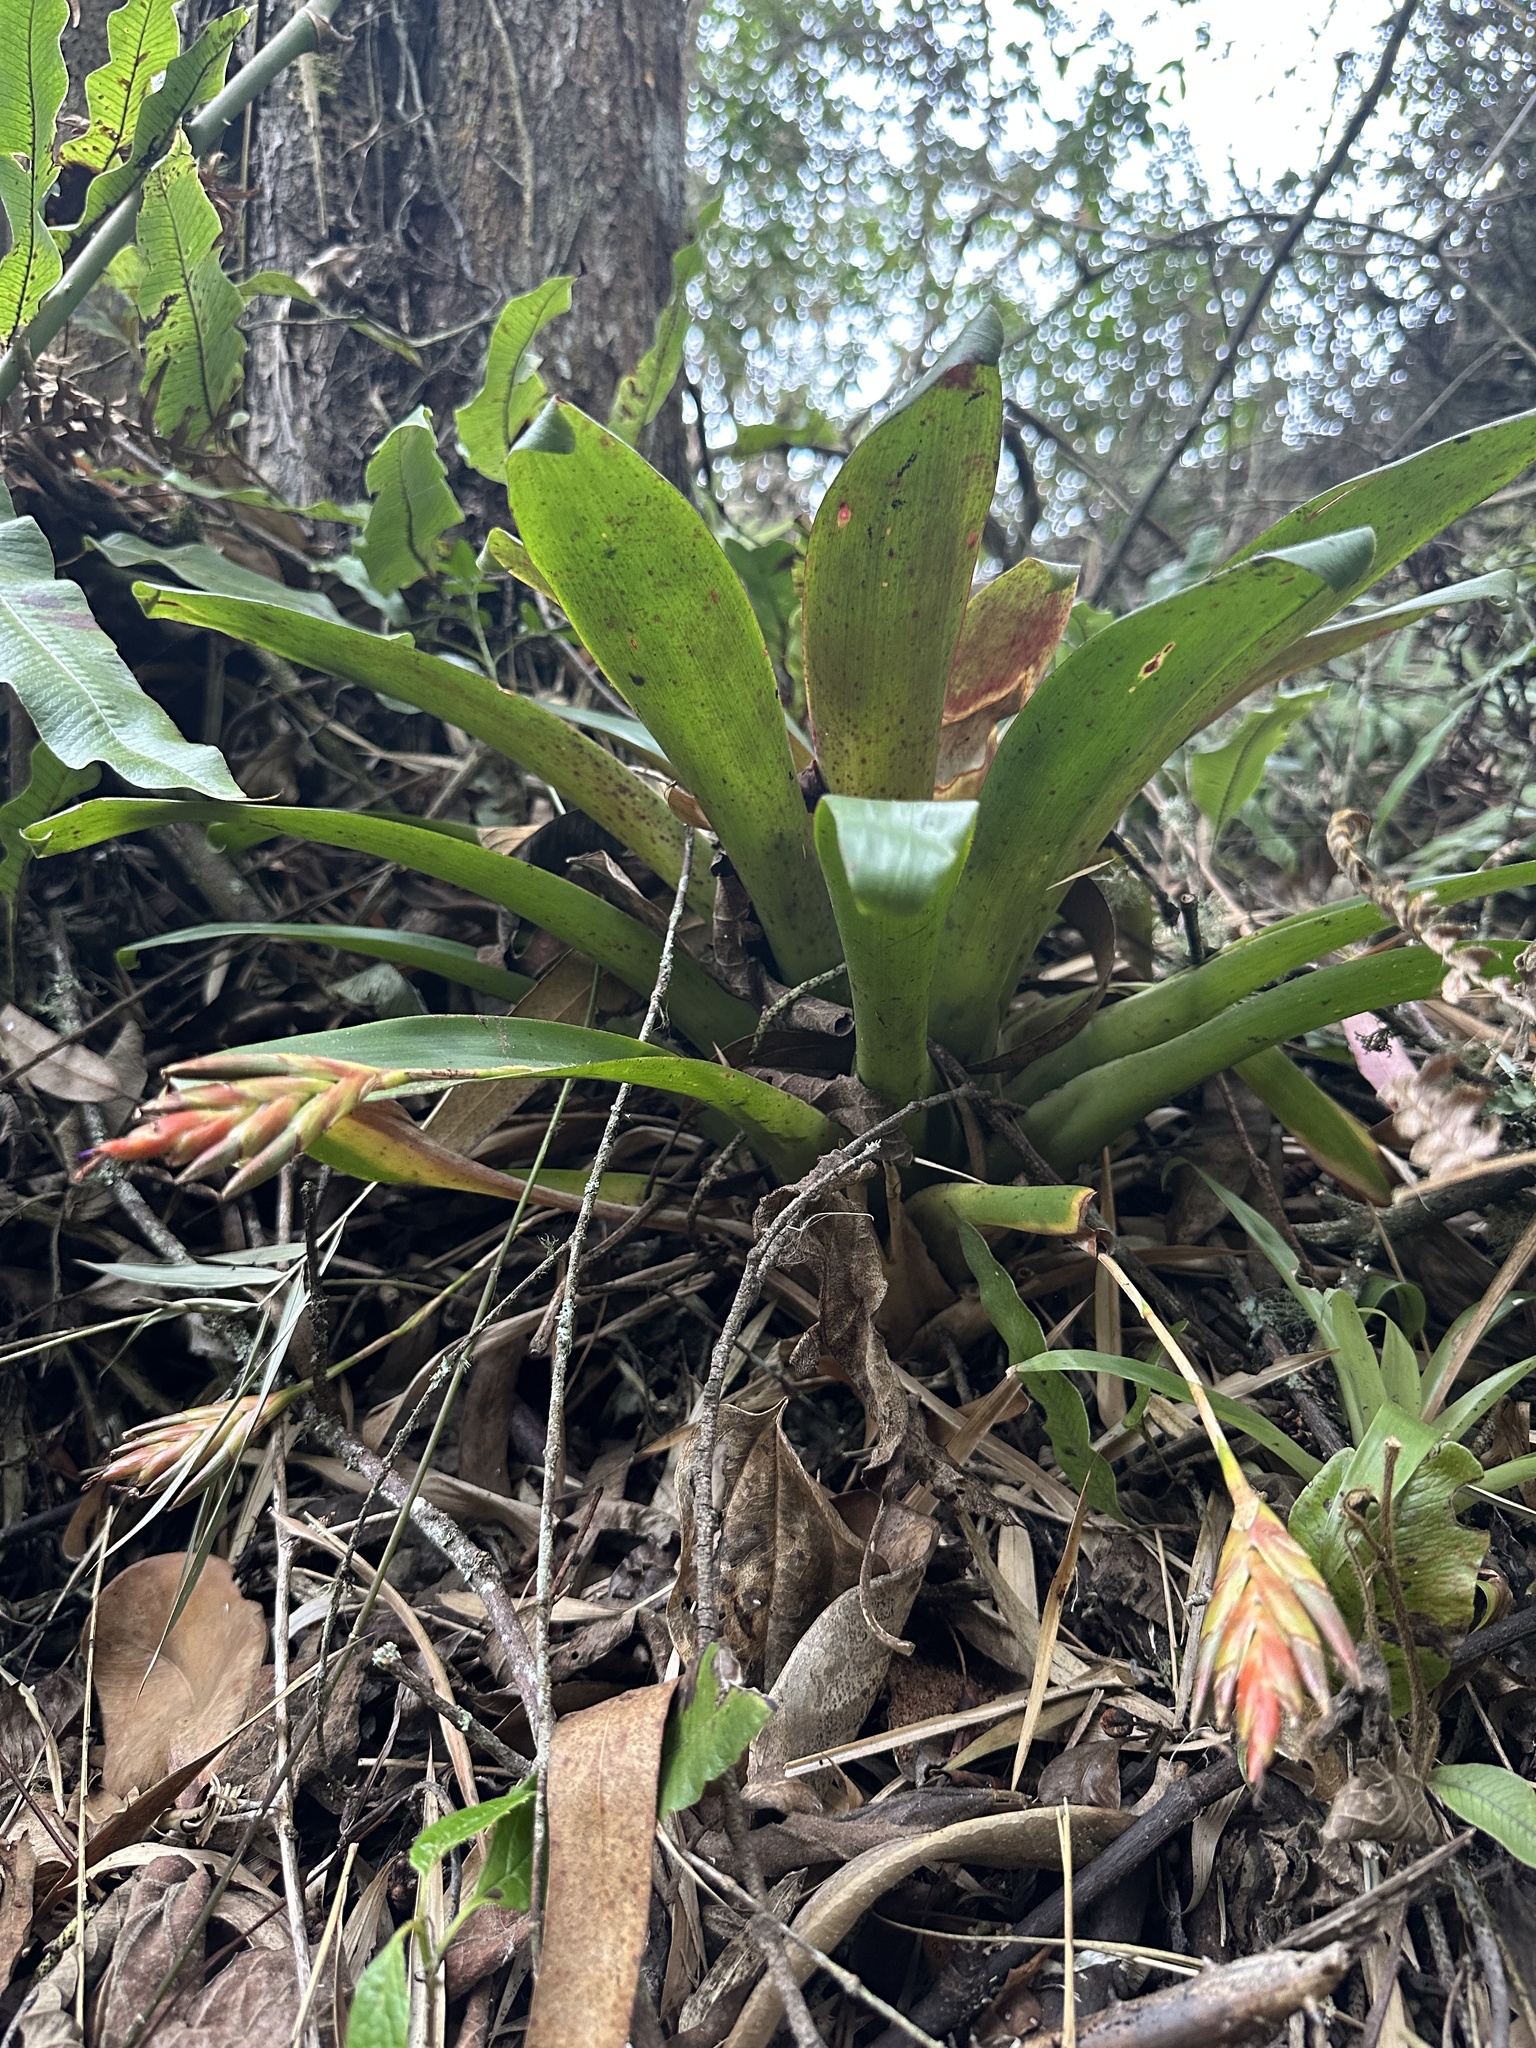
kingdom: Plantae
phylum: Tracheophyta
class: Liliopsida
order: Poales
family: Bromeliaceae
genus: Tillandsia
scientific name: Tillandsia complanata
